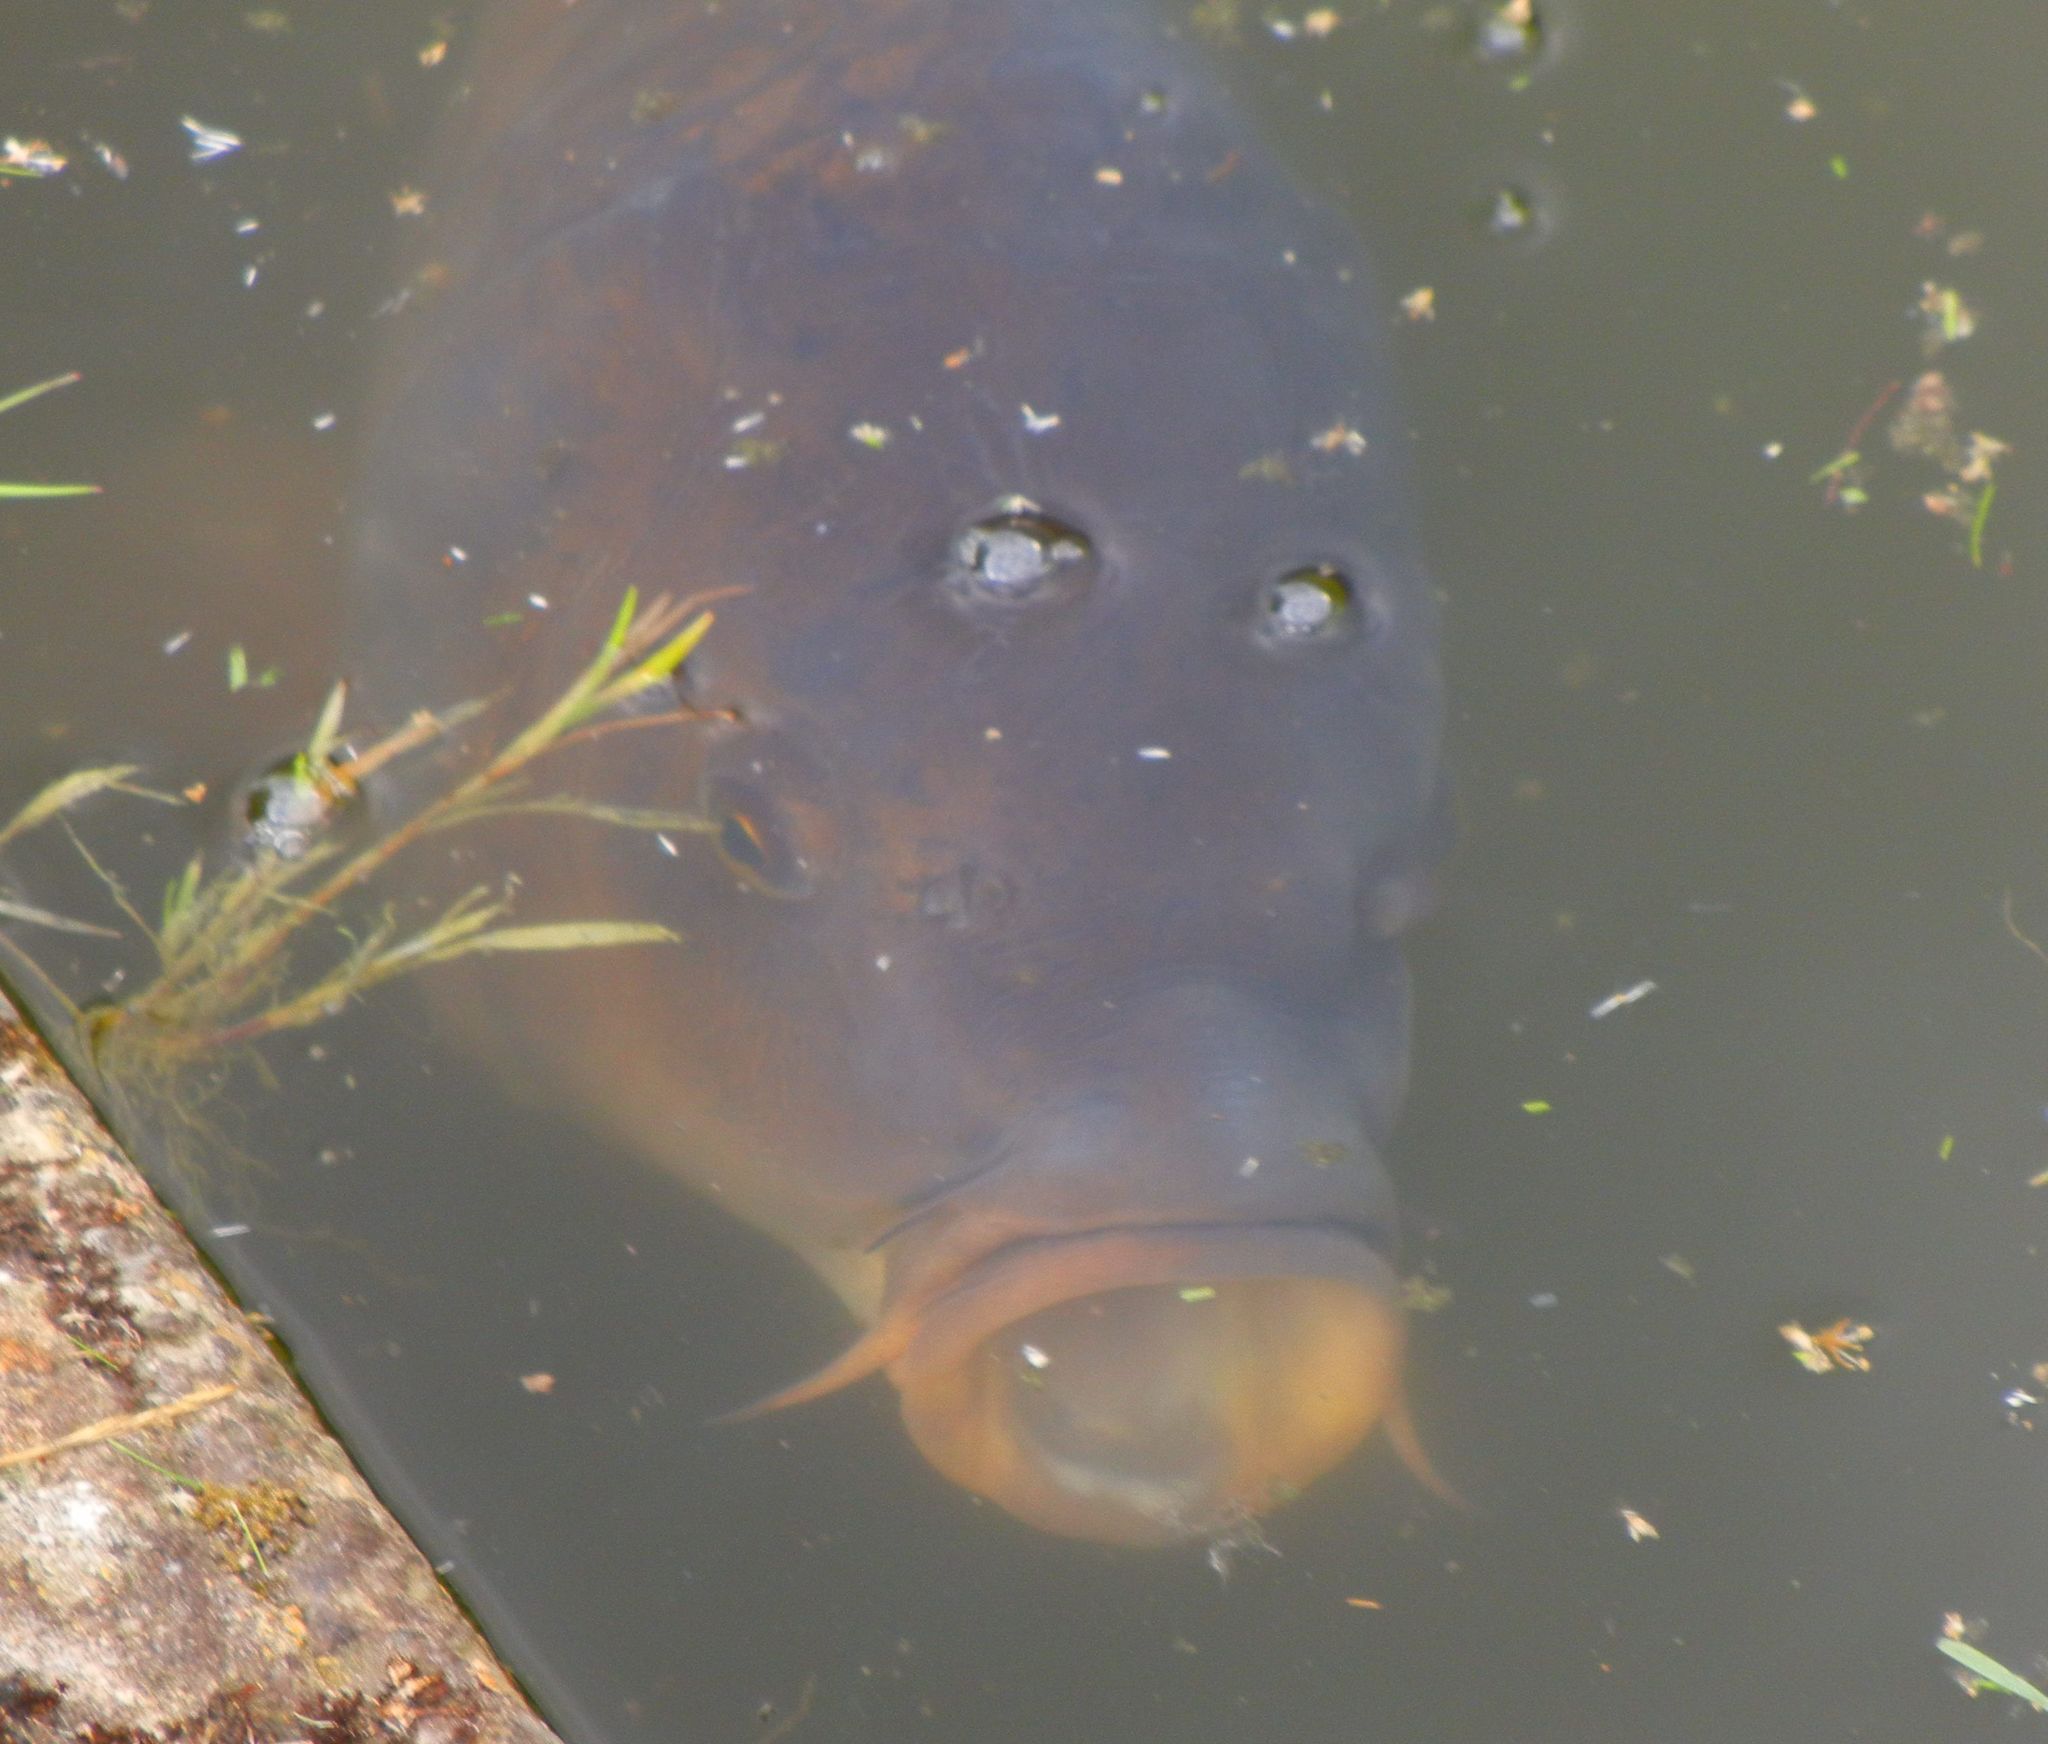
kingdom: Animalia
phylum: Chordata
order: Cypriniformes
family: Cyprinidae
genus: Cyprinus
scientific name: Cyprinus carpio
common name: Common carp
